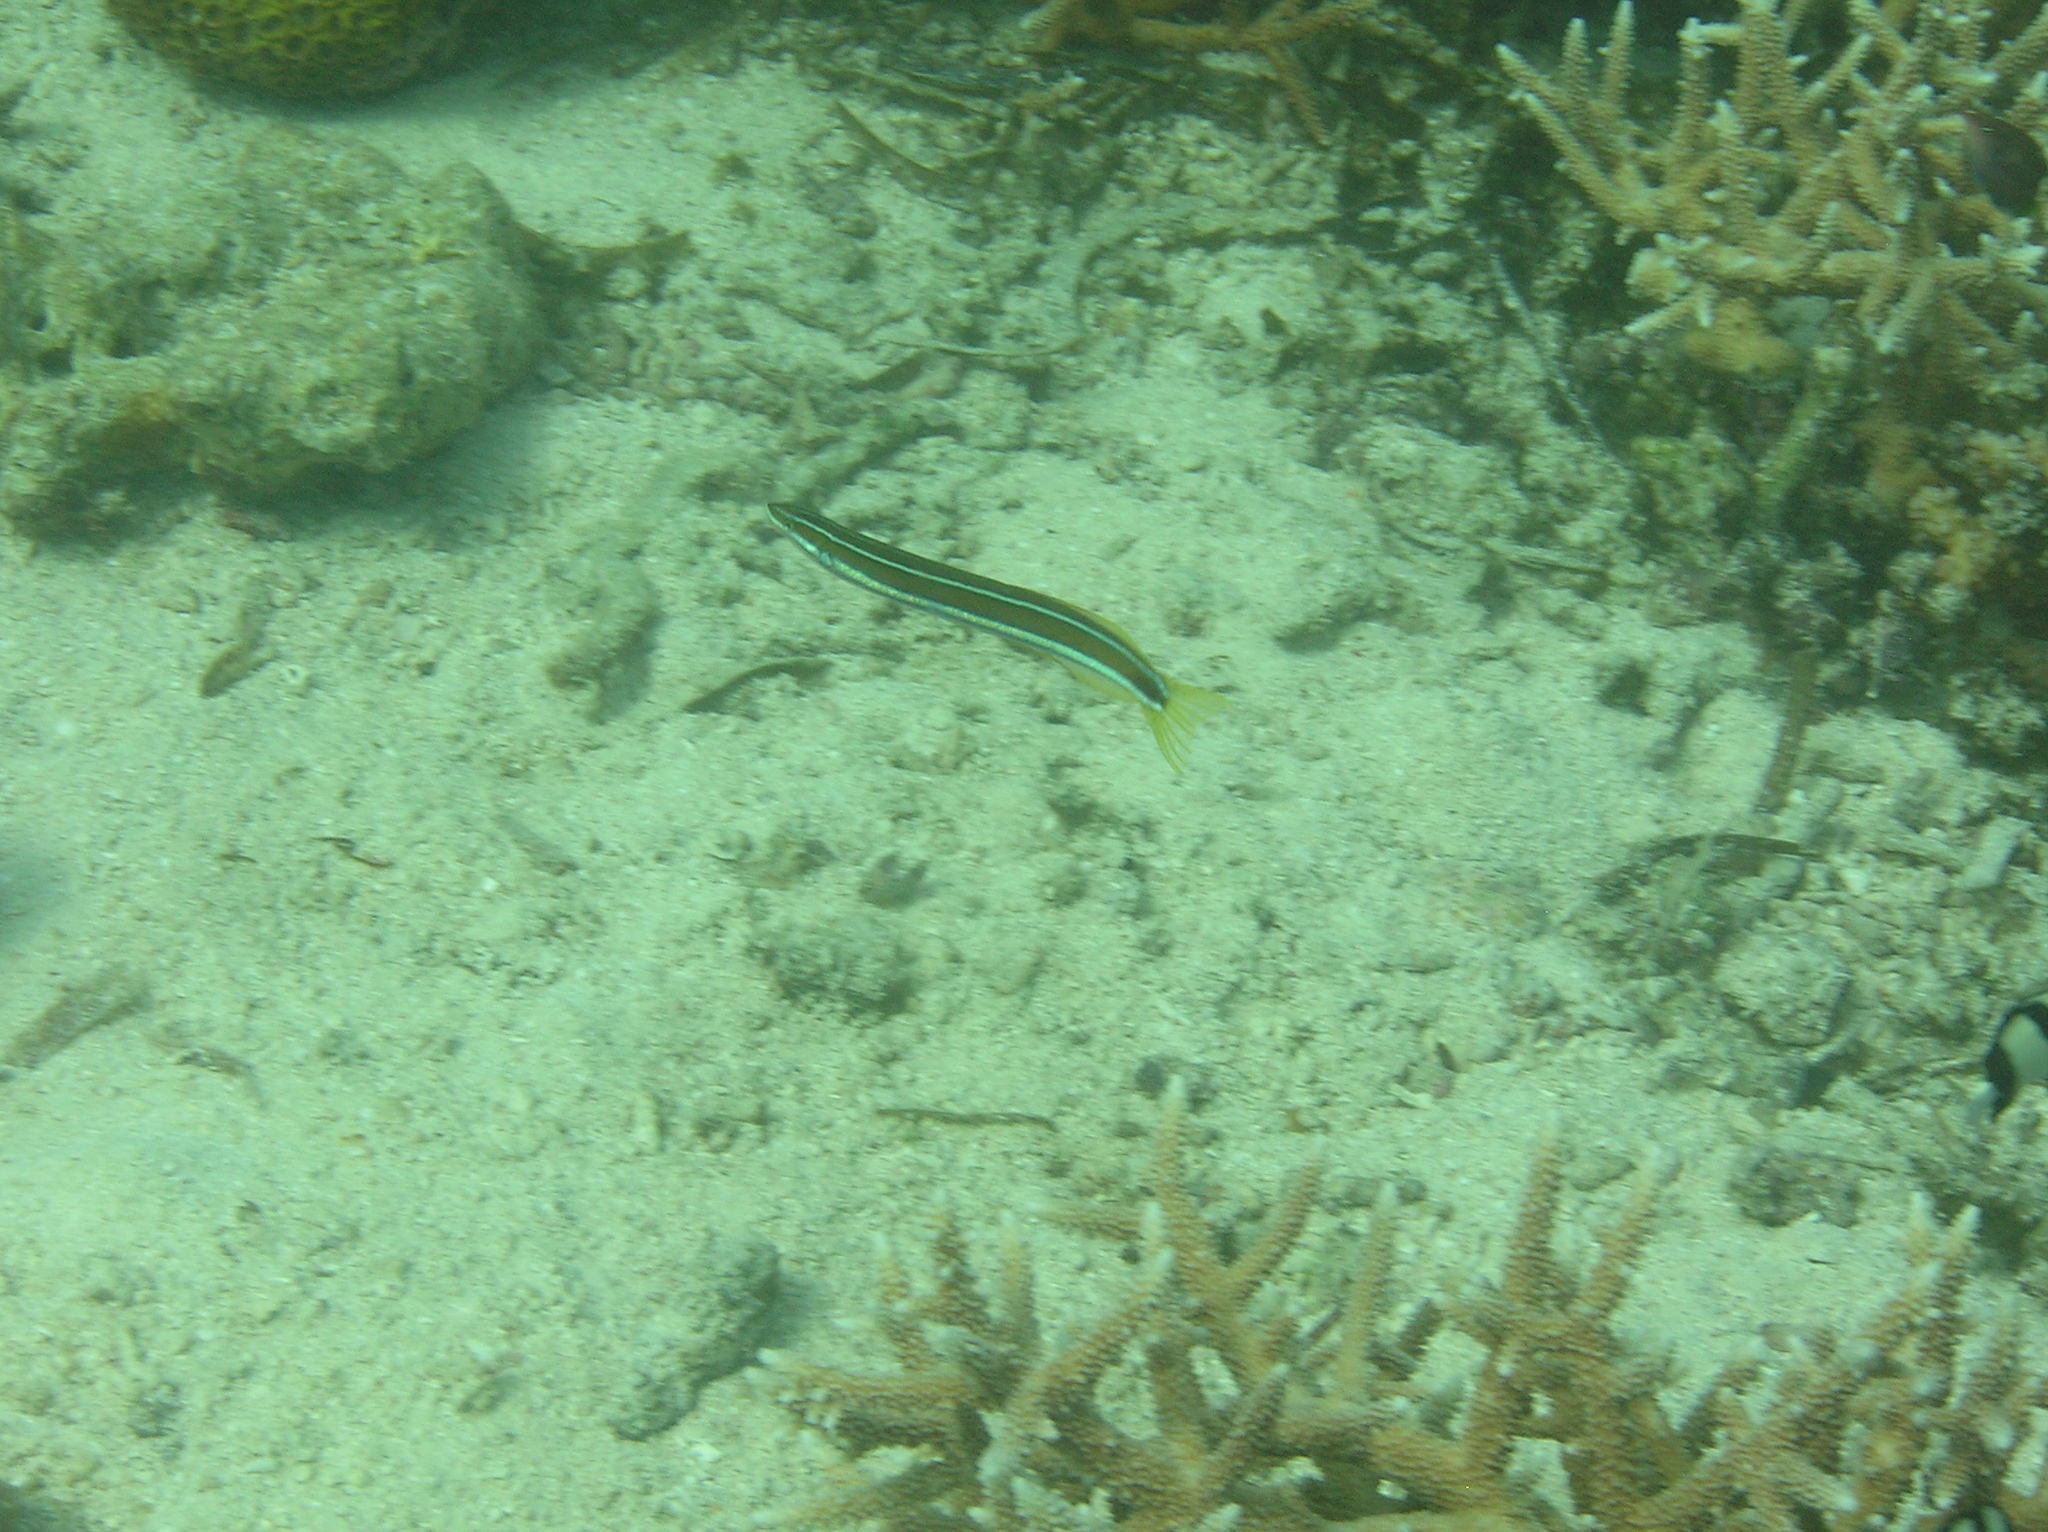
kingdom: Animalia
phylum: Chordata
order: Perciformes
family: Blenniidae
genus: Plagiotremus
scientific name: Plagiotremus rhinorhynchos
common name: Bluestriped fangblenny
